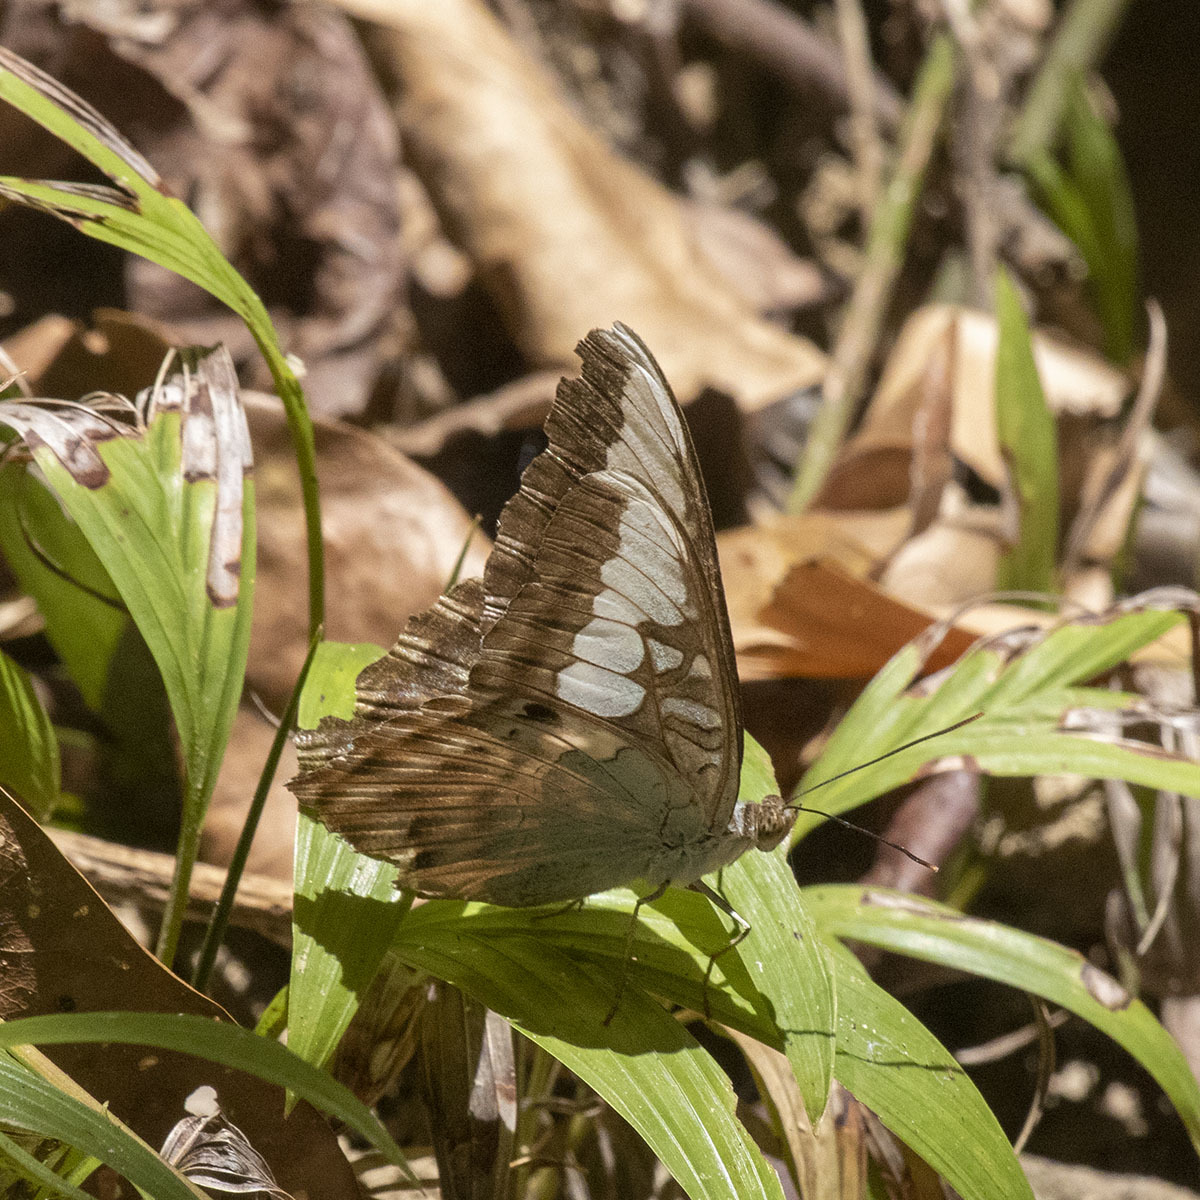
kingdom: Animalia
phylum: Arthropoda
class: Insecta
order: Lepidoptera
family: Nymphalidae
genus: Kallima
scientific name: Kallima sylvia
